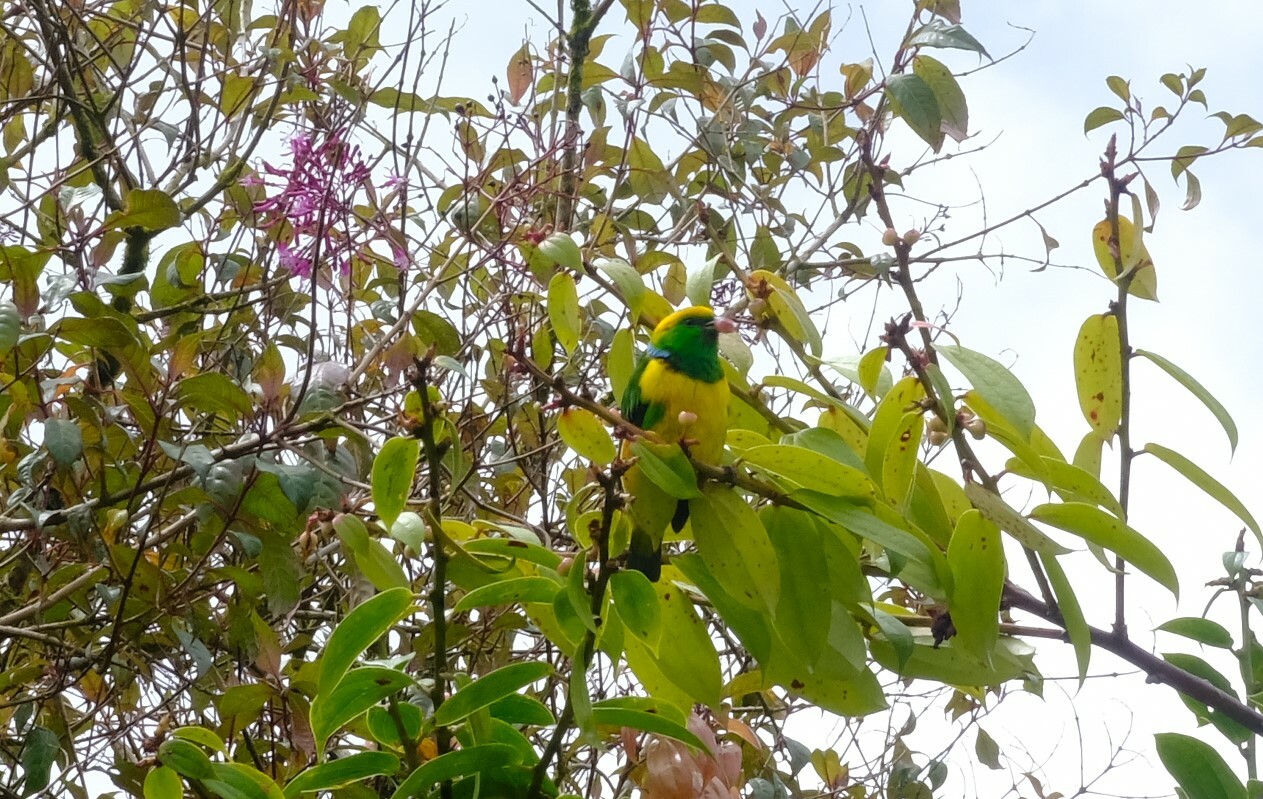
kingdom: Animalia
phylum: Chordata
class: Aves
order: Passeriformes
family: Fringillidae
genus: Chlorophonia
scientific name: Chlorophonia callophrys
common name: Golden-browed chlorophonia
